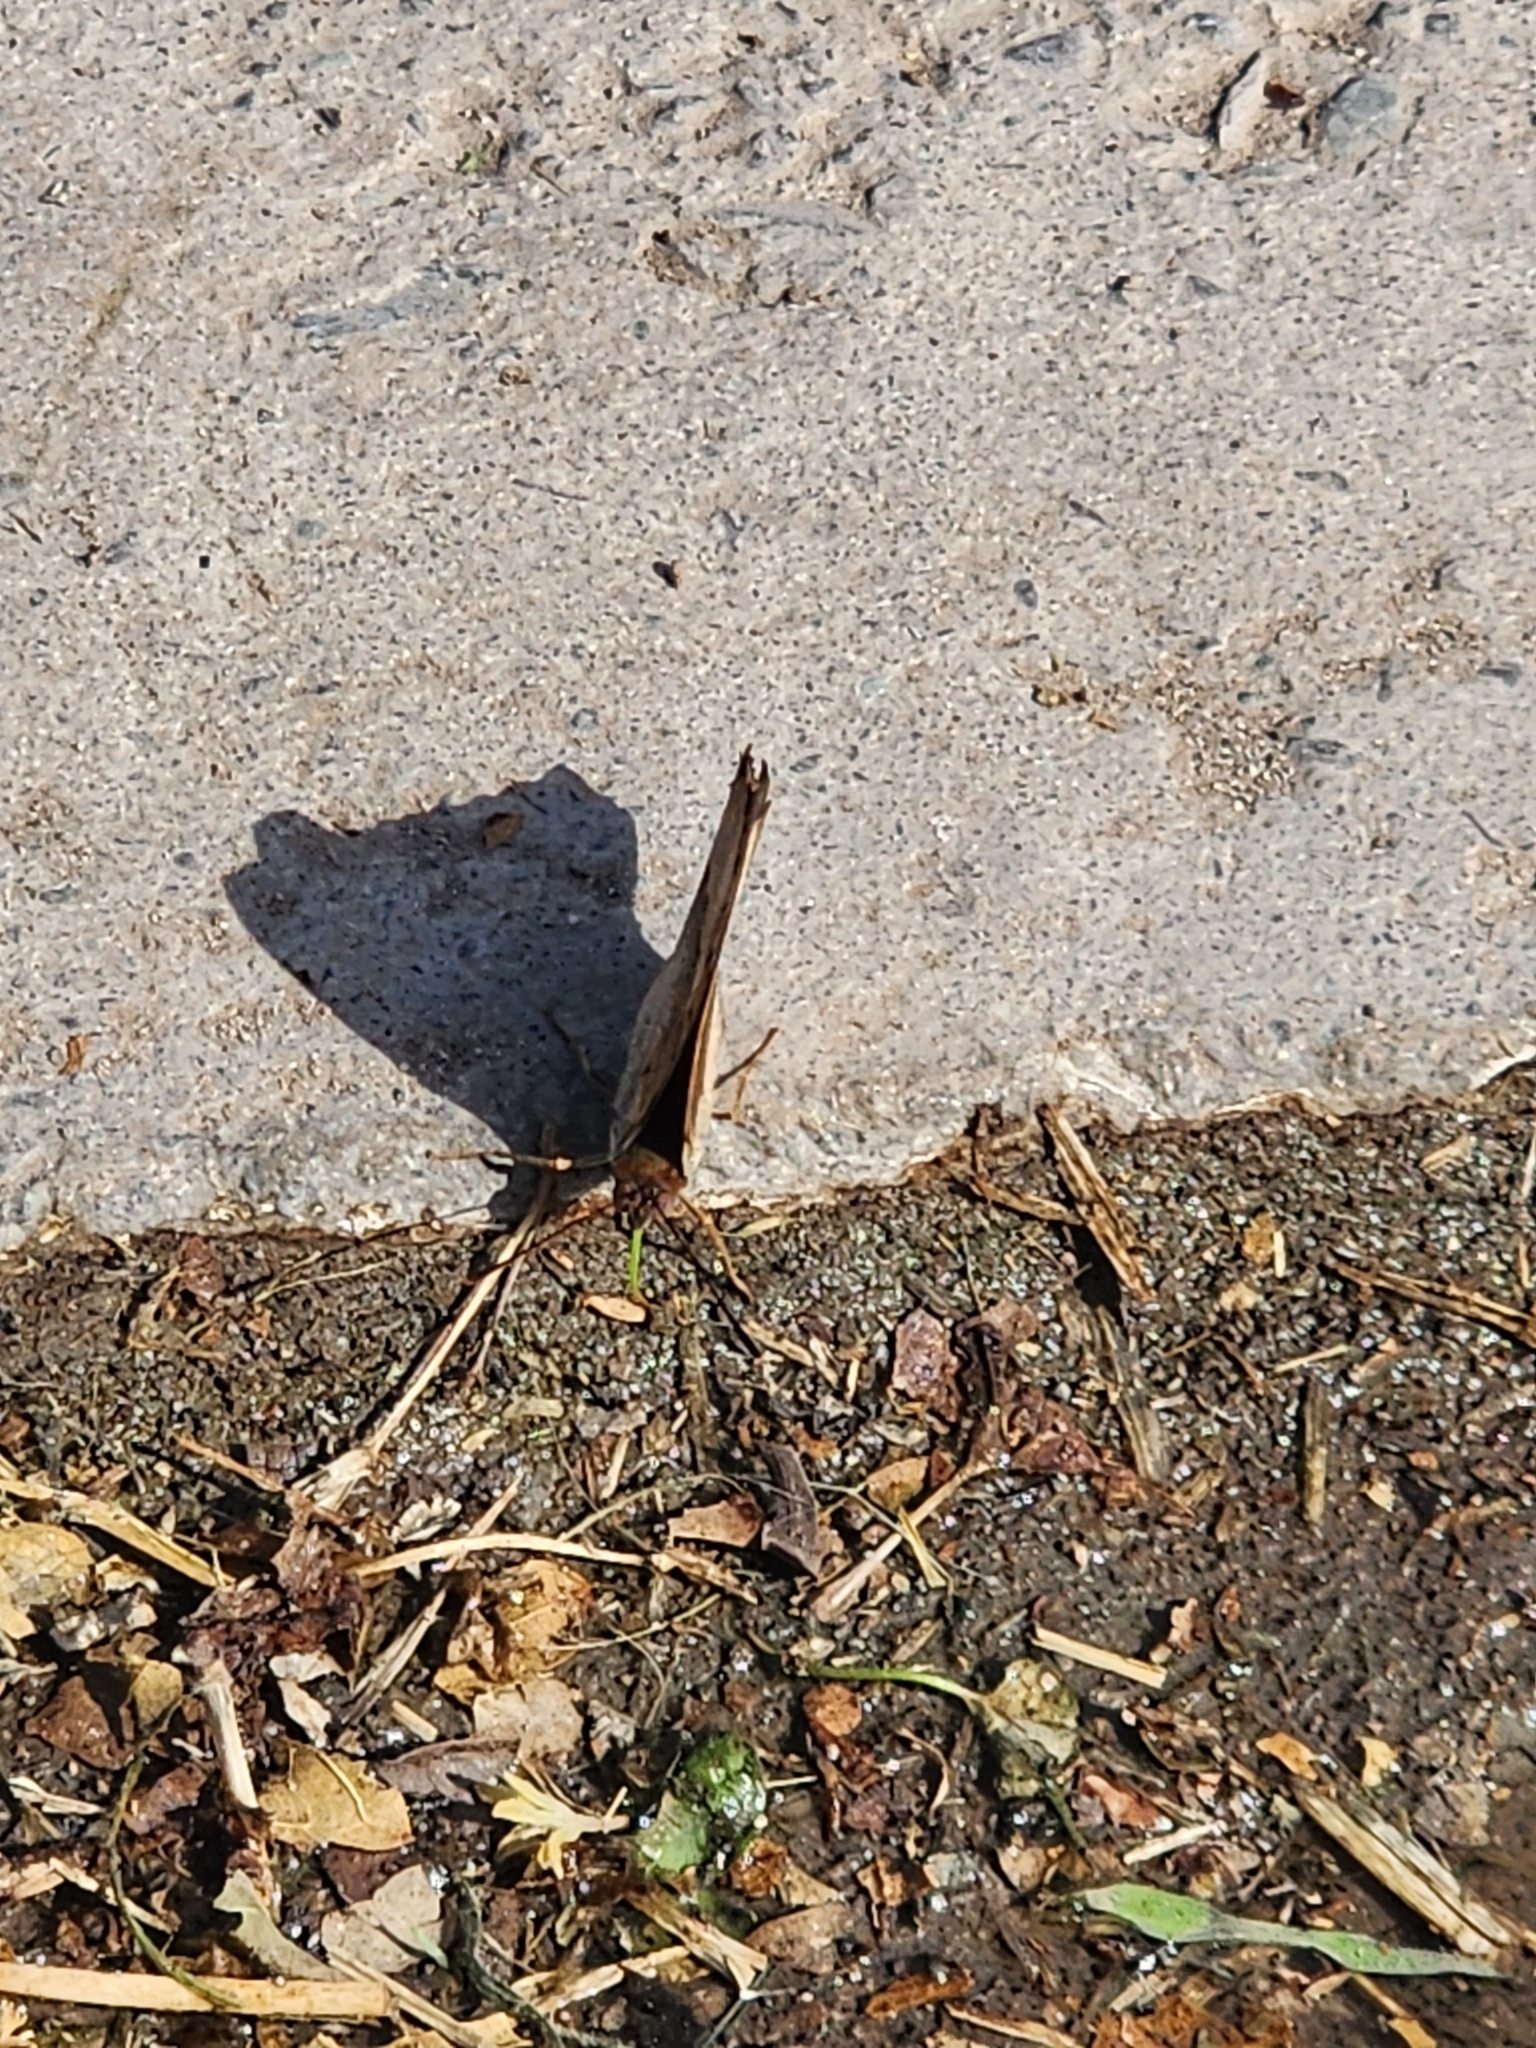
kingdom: Animalia
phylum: Arthropoda
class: Insecta
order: Lepidoptera
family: Nymphalidae
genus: Doxocopa
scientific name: Doxocopa cyane
